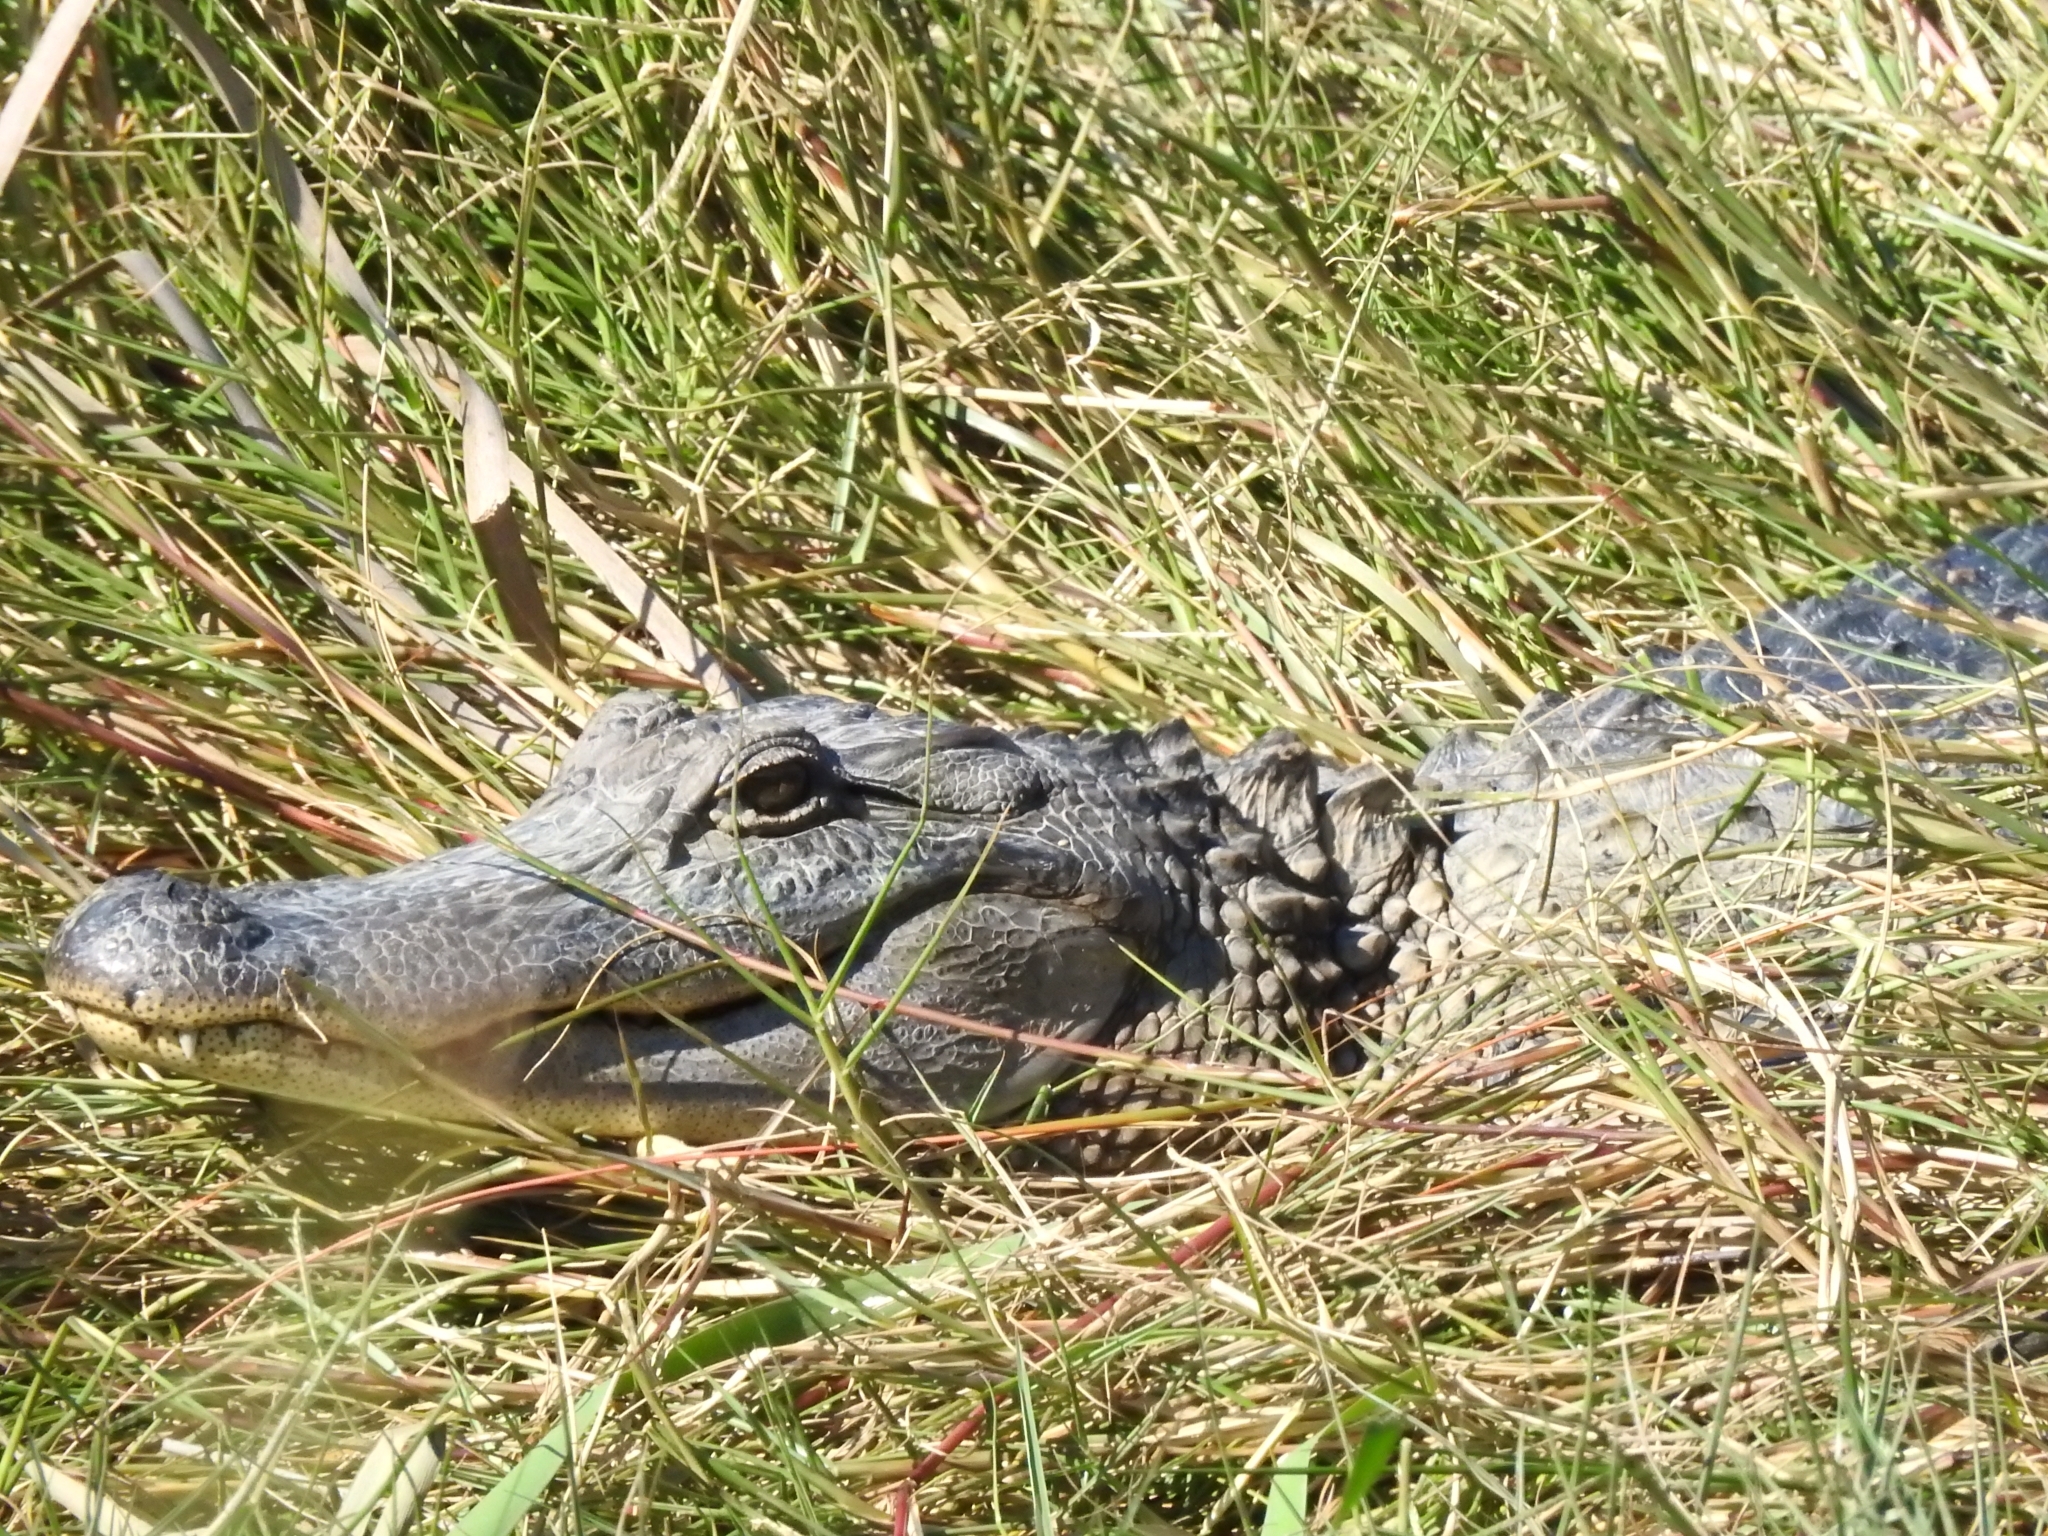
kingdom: Animalia
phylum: Chordata
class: Crocodylia
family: Alligatoridae
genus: Alligator
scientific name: Alligator mississippiensis
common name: American alligator
